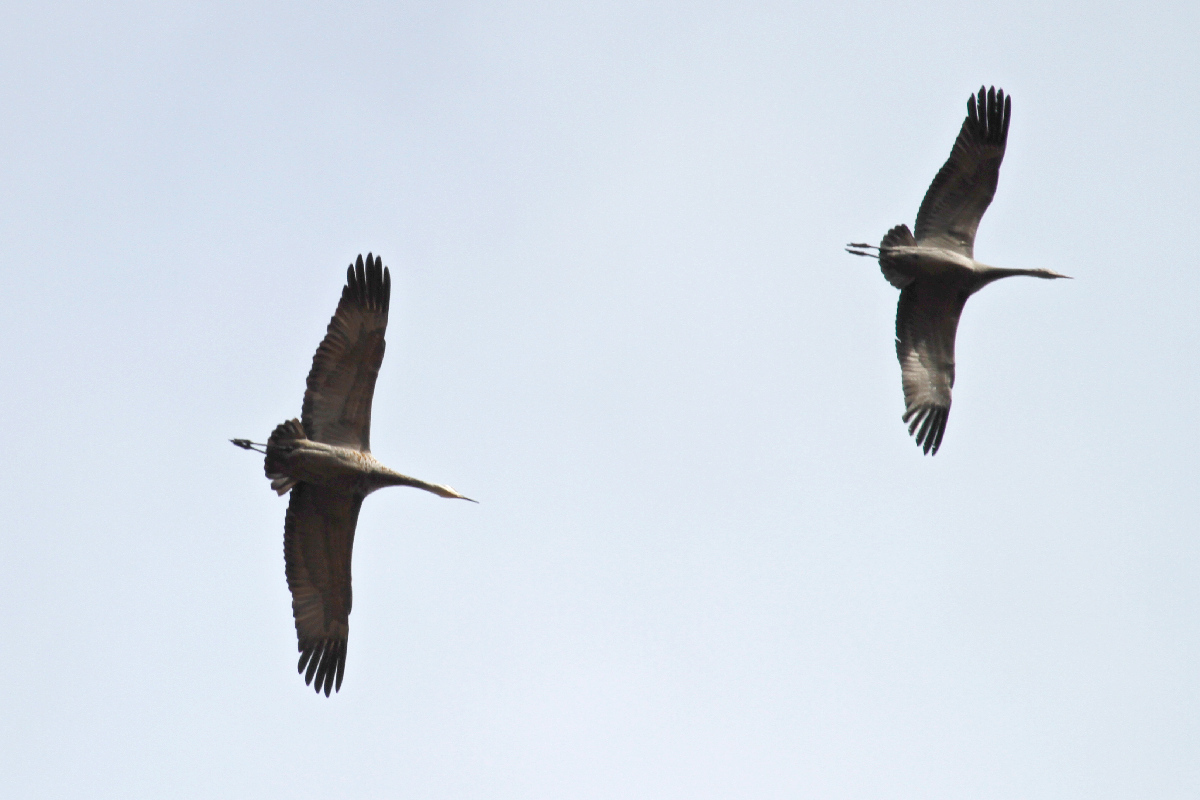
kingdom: Animalia
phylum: Chordata
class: Aves
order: Gruiformes
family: Gruidae
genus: Grus
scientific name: Grus canadensis
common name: Sandhill crane
